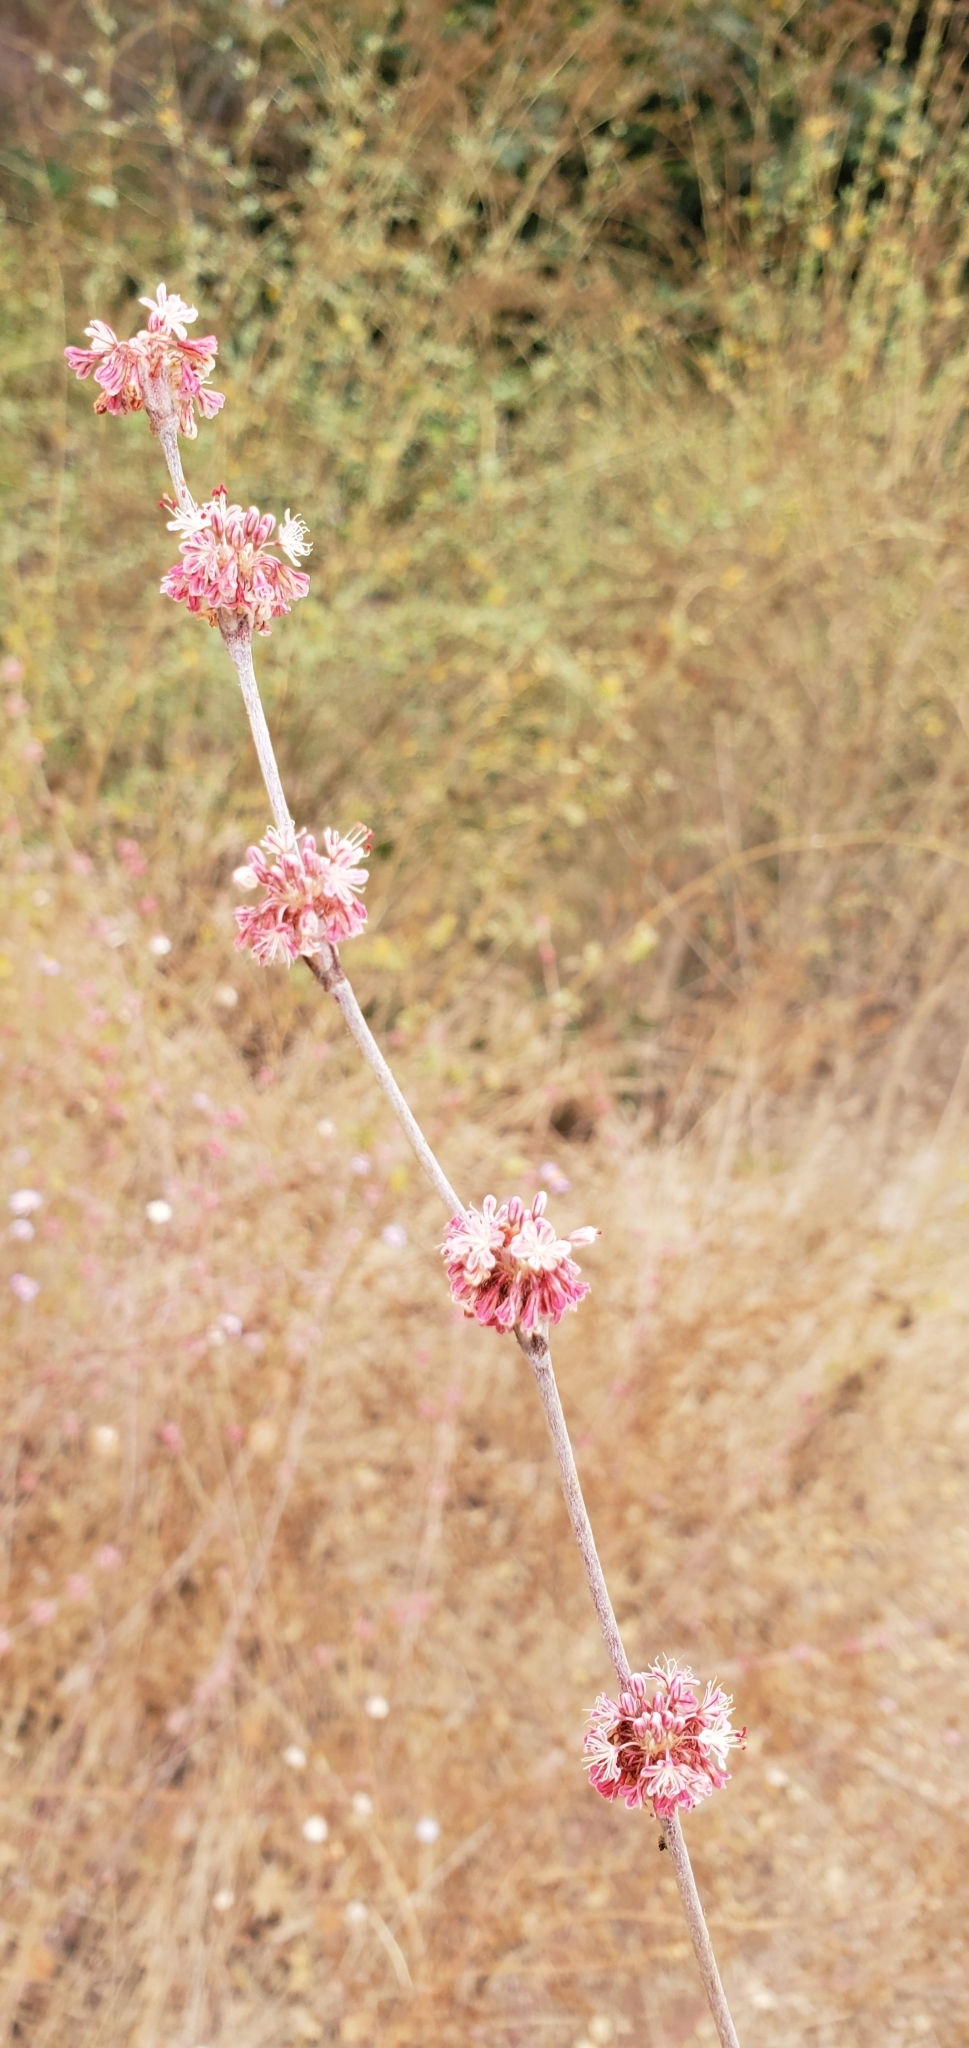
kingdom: Plantae
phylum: Tracheophyta
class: Magnoliopsida
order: Caryophyllales
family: Polygonaceae
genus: Eriogonum
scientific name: Eriogonum elongatum
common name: Long-stem wild buckwheat
